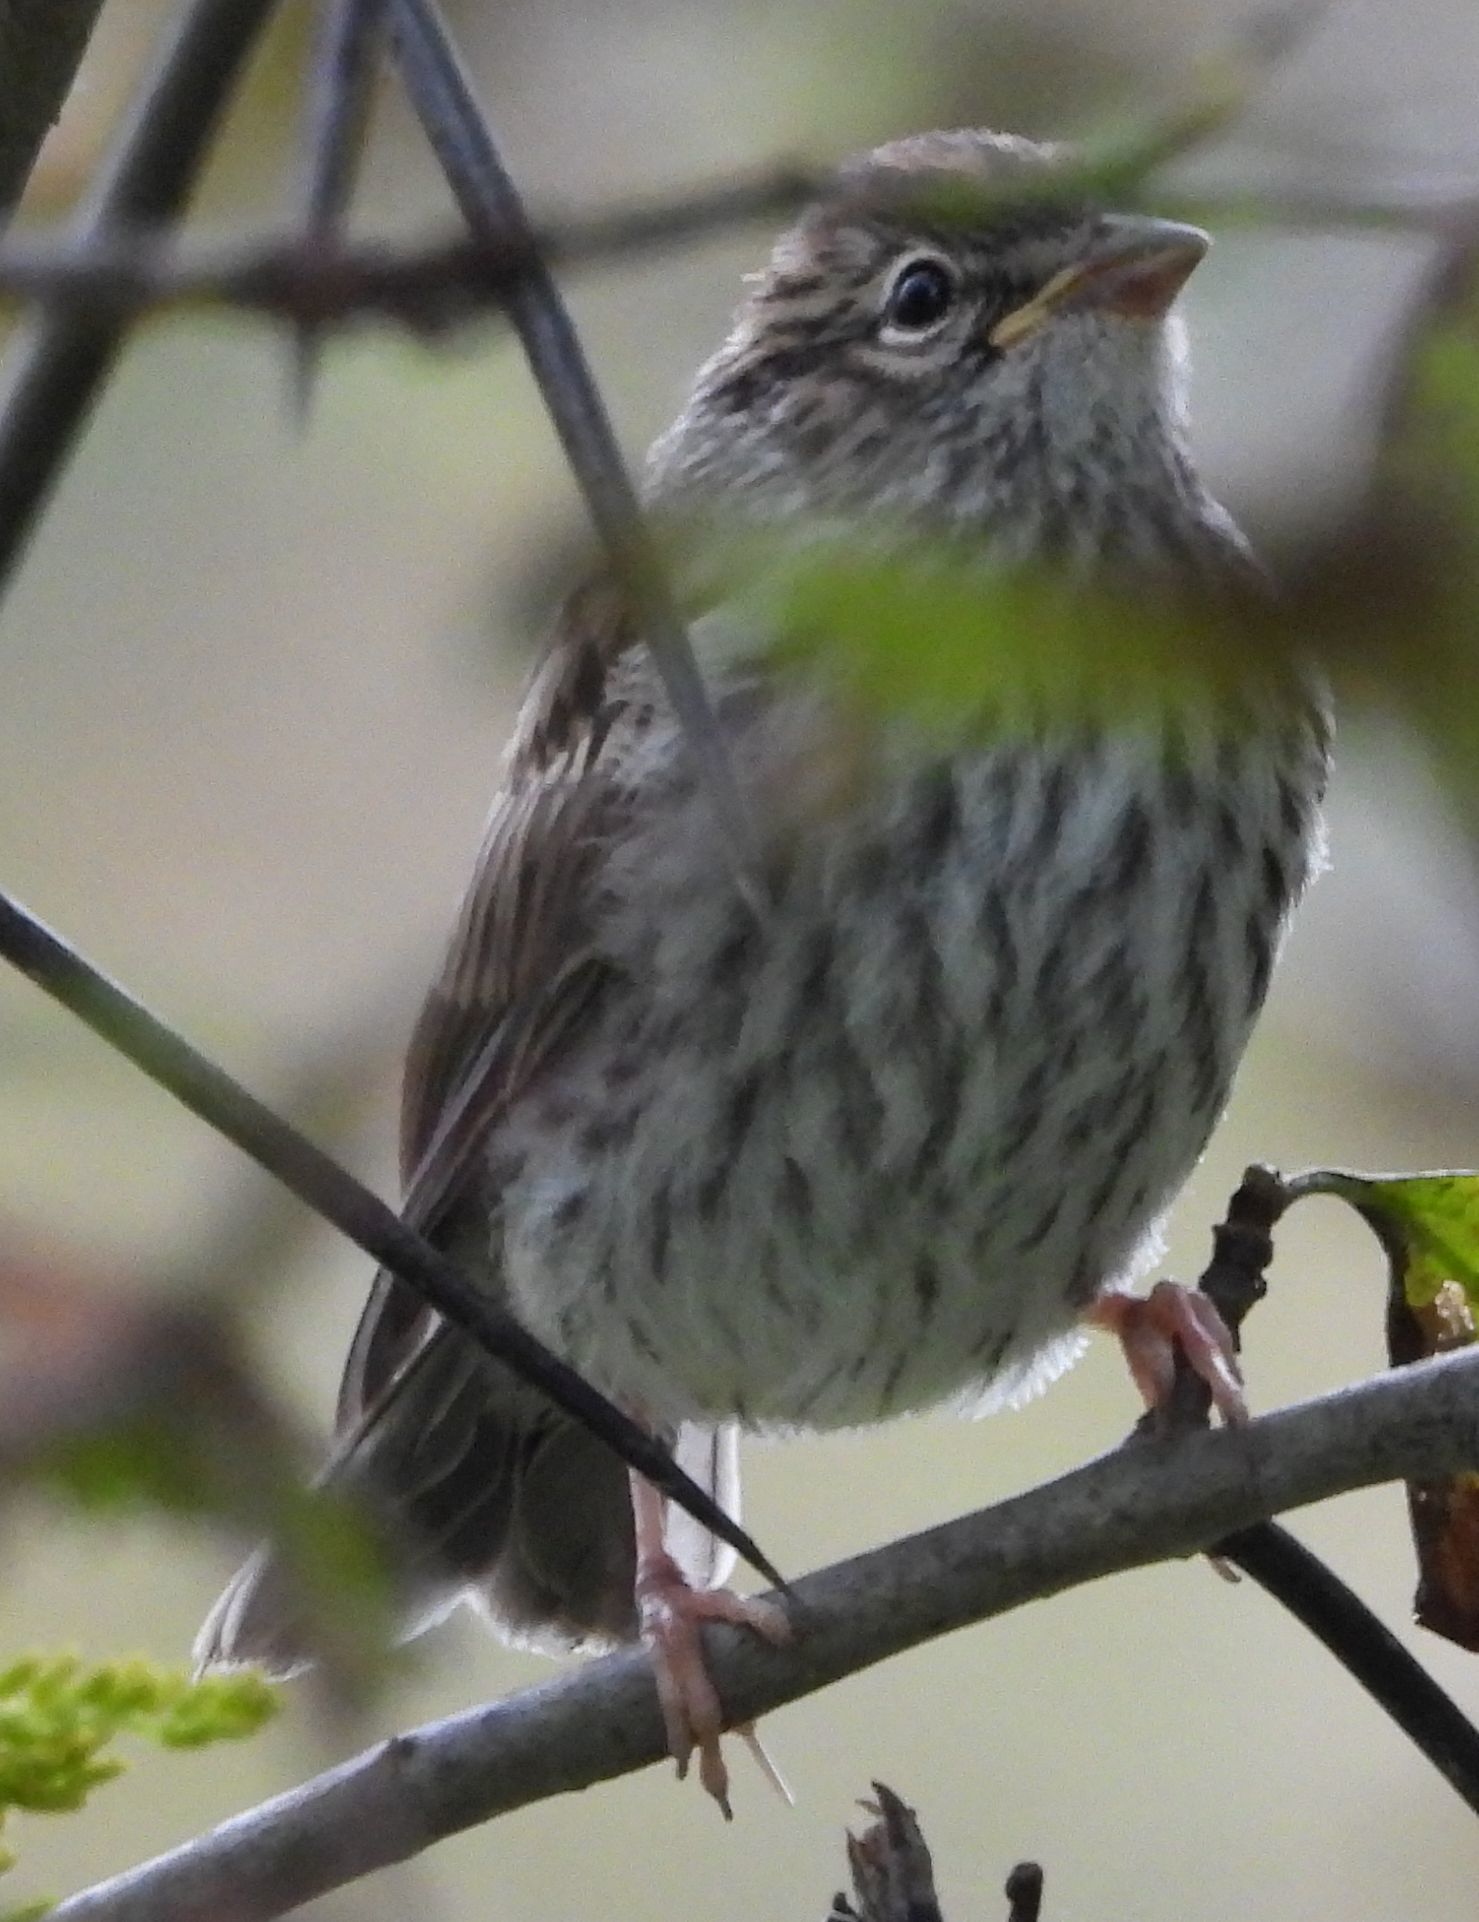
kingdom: Animalia
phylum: Chordata
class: Aves
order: Passeriformes
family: Passerellidae
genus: Spizella
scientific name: Spizella passerina
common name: Chipping sparrow
